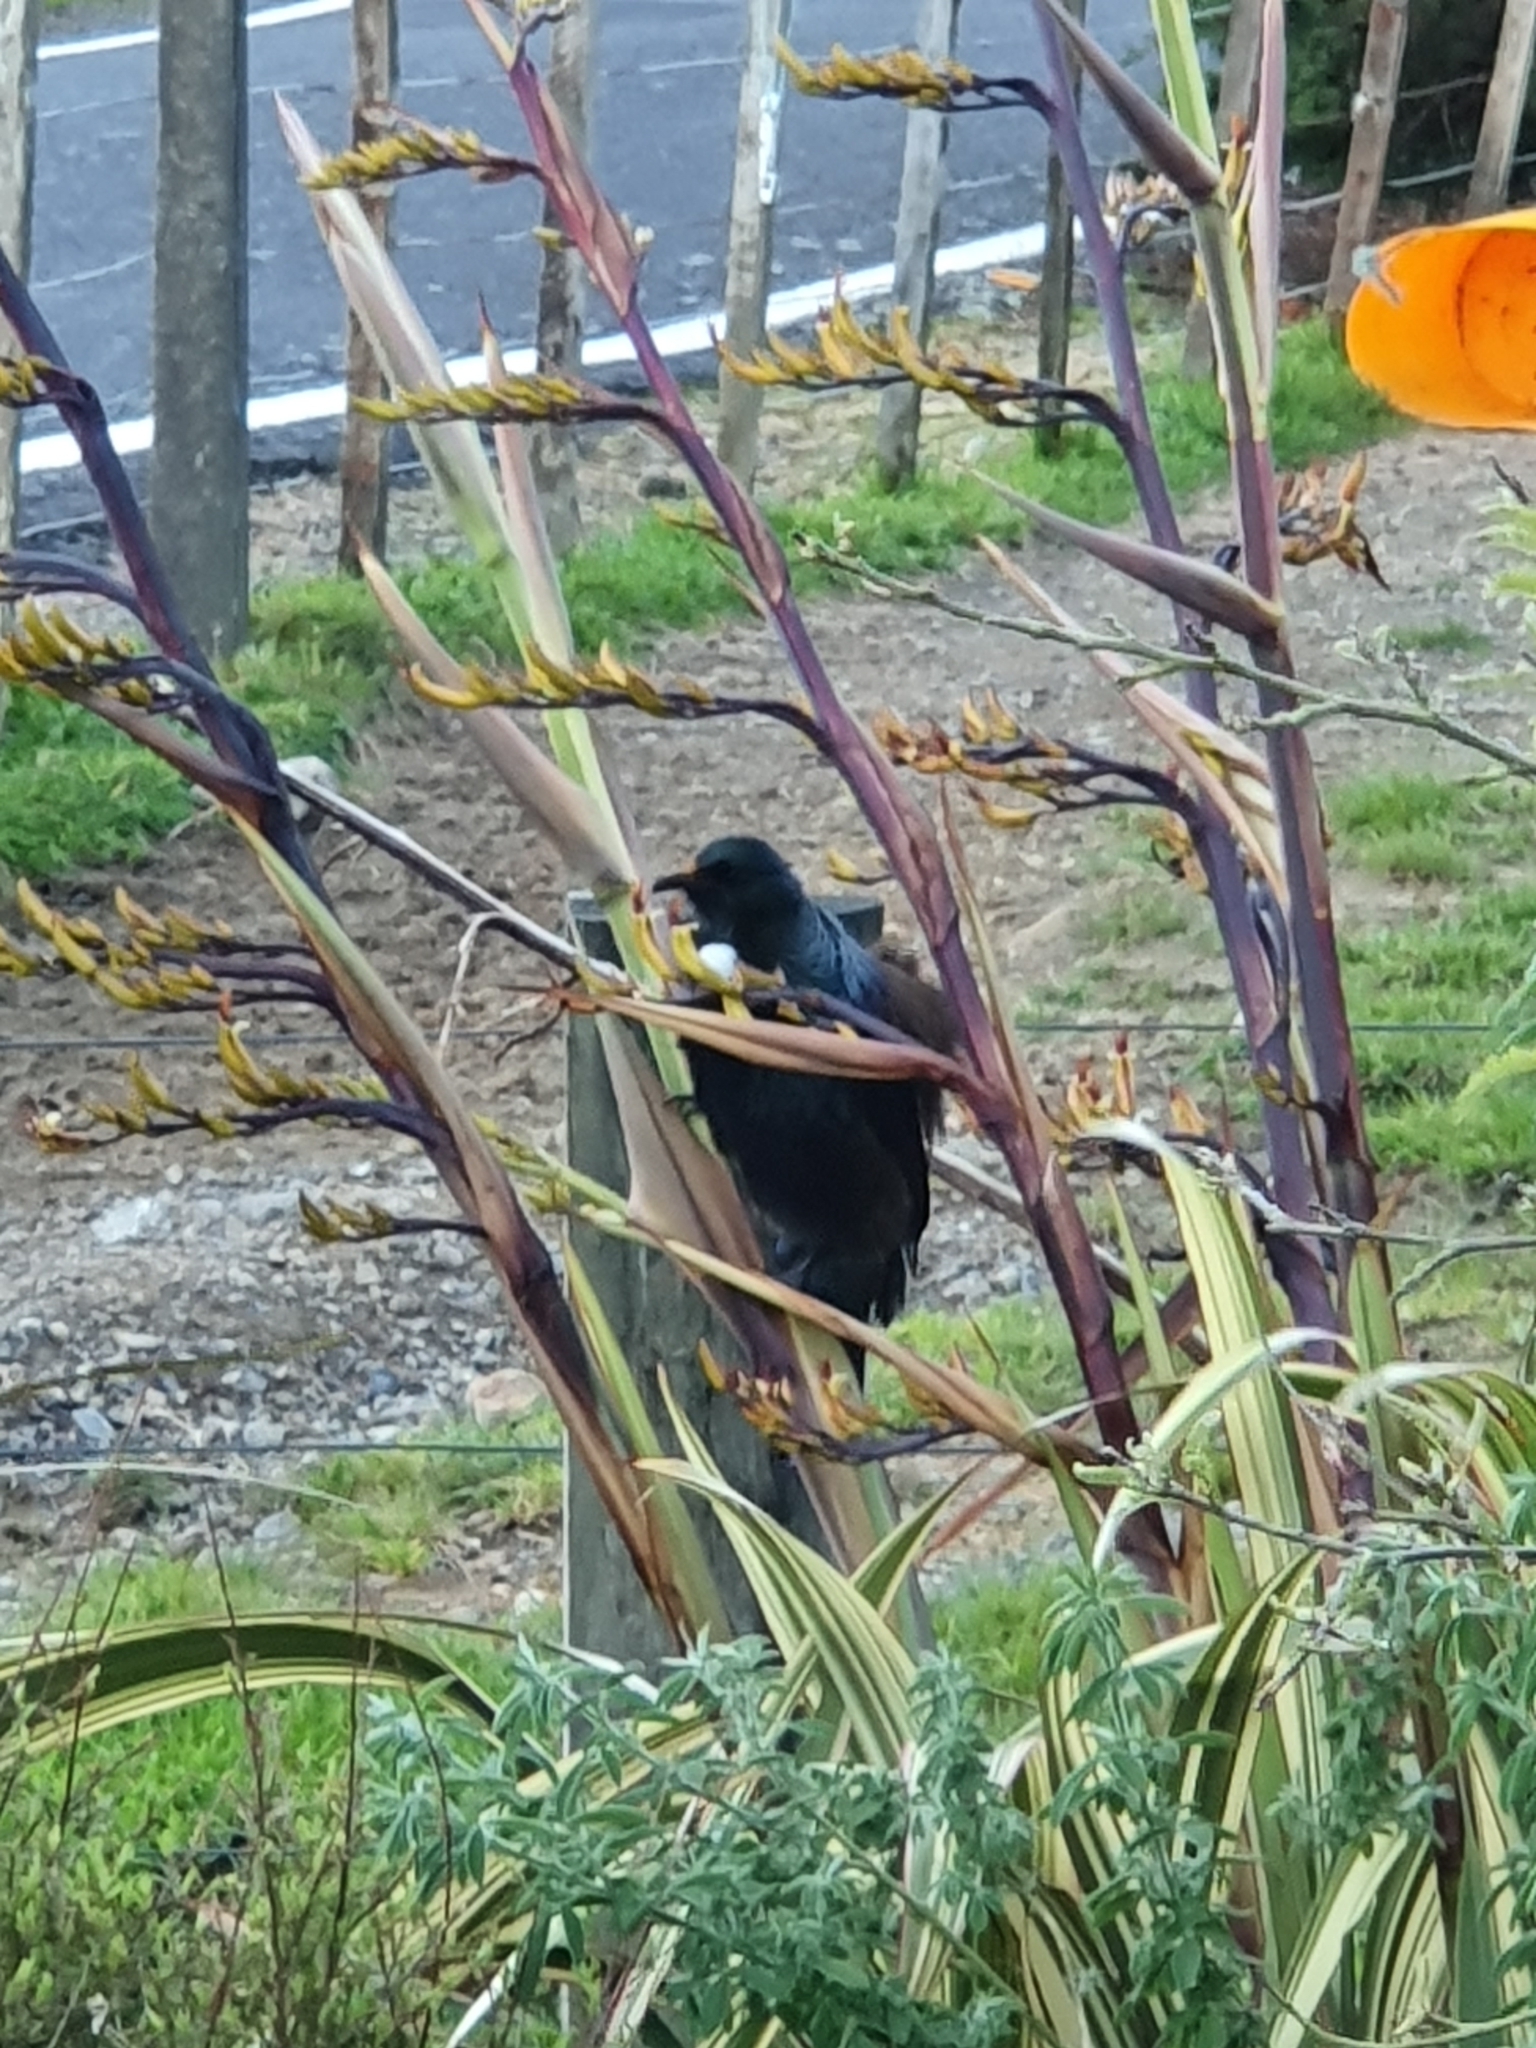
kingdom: Animalia
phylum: Chordata
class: Aves
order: Passeriformes
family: Meliphagidae
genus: Prosthemadera
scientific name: Prosthemadera novaeseelandiae
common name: Tui
